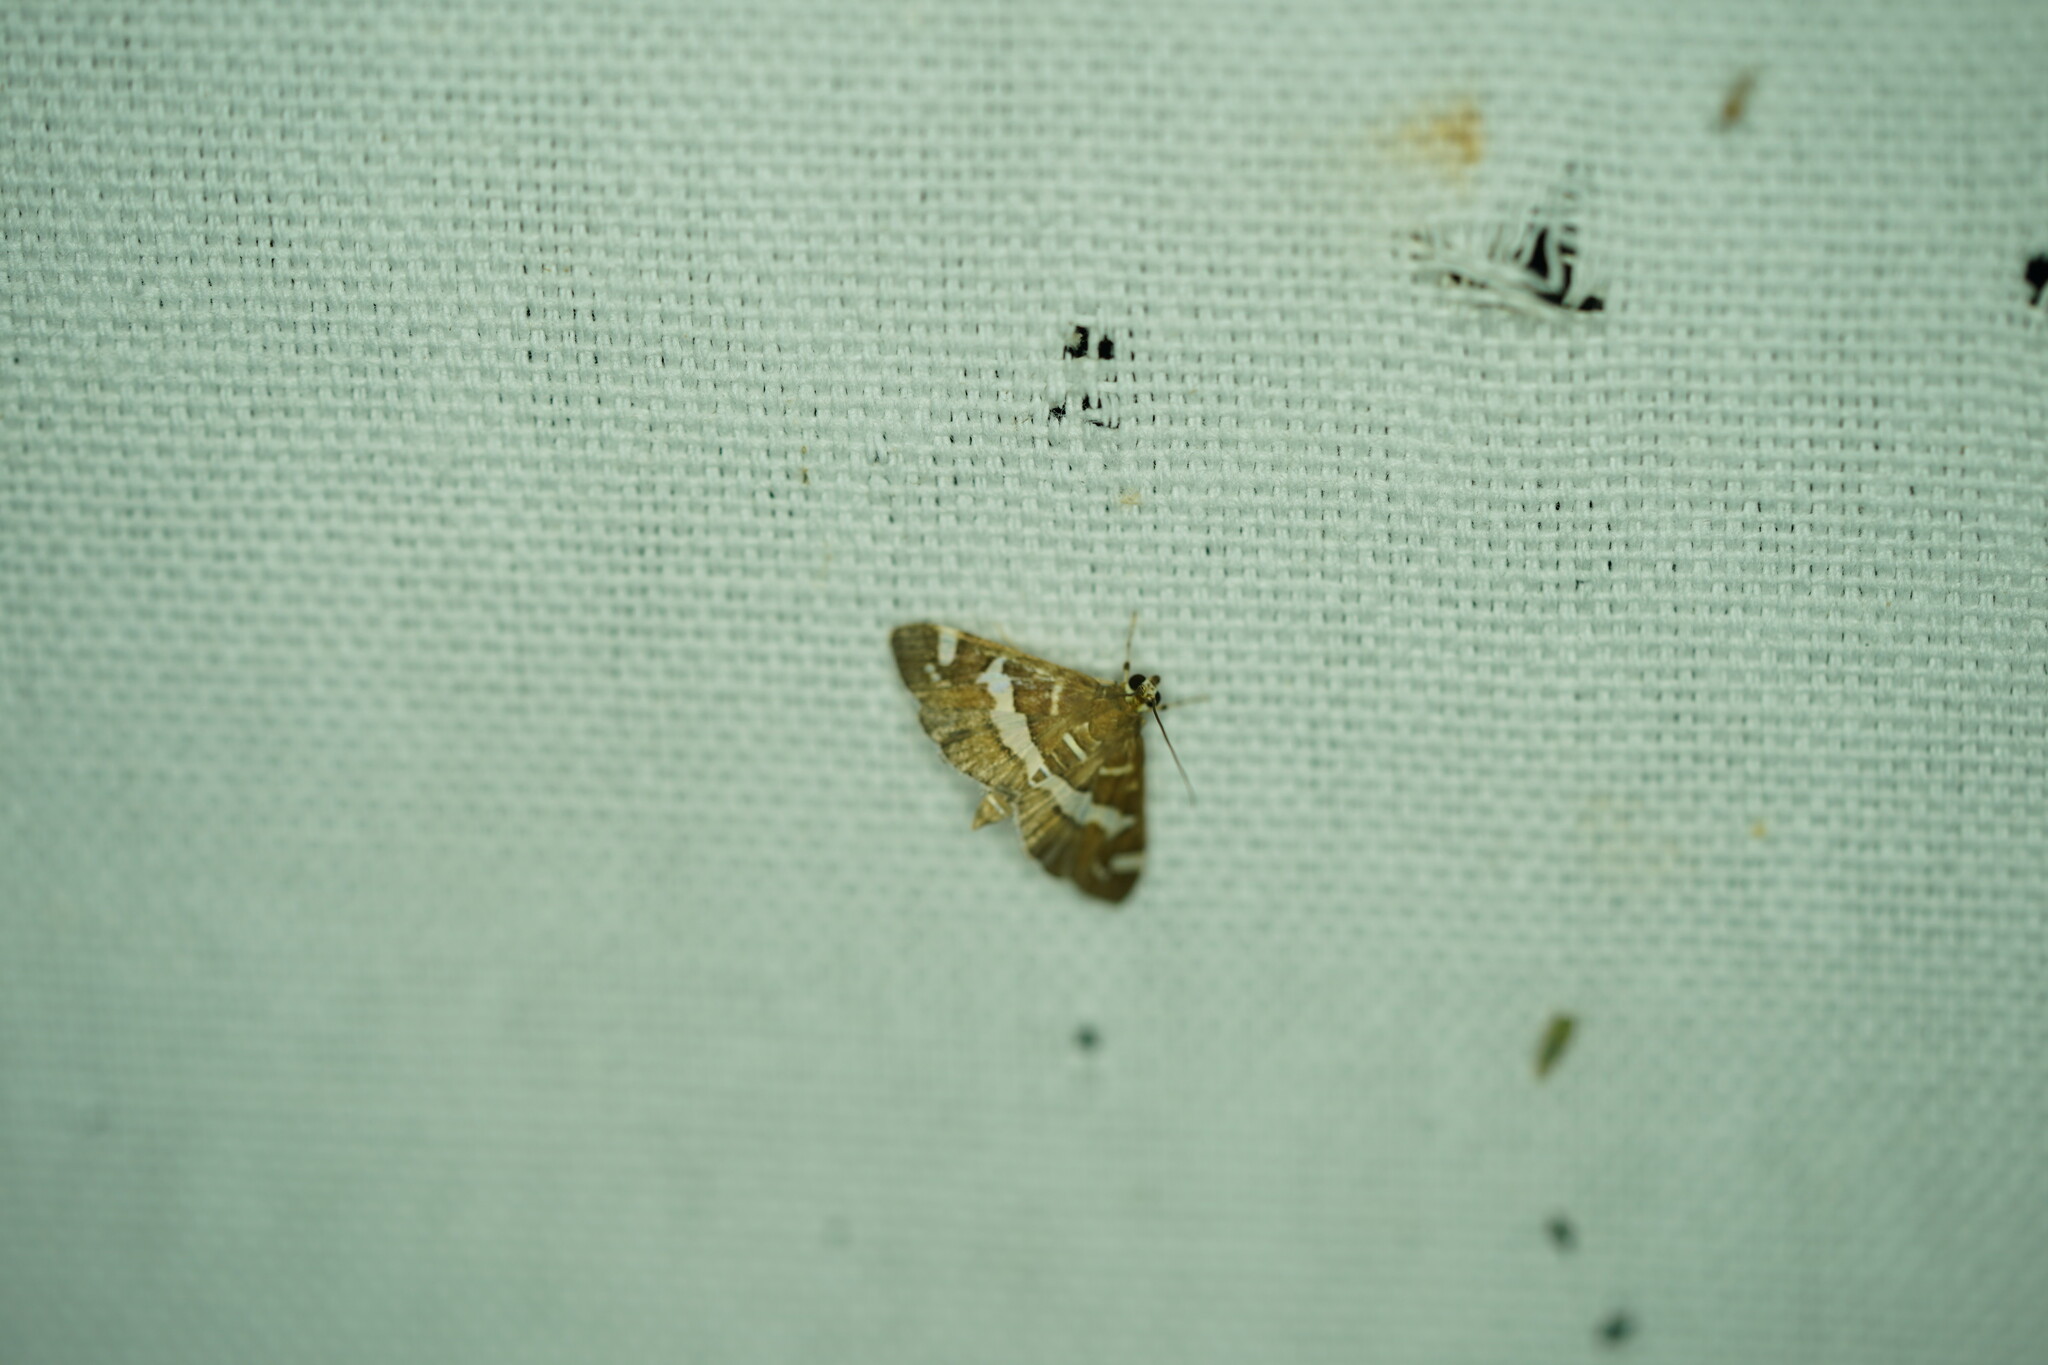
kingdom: Animalia
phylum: Arthropoda
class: Insecta
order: Lepidoptera
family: Crambidae
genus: Spoladea
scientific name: Spoladea recurvalis
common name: Beet webworm moth
